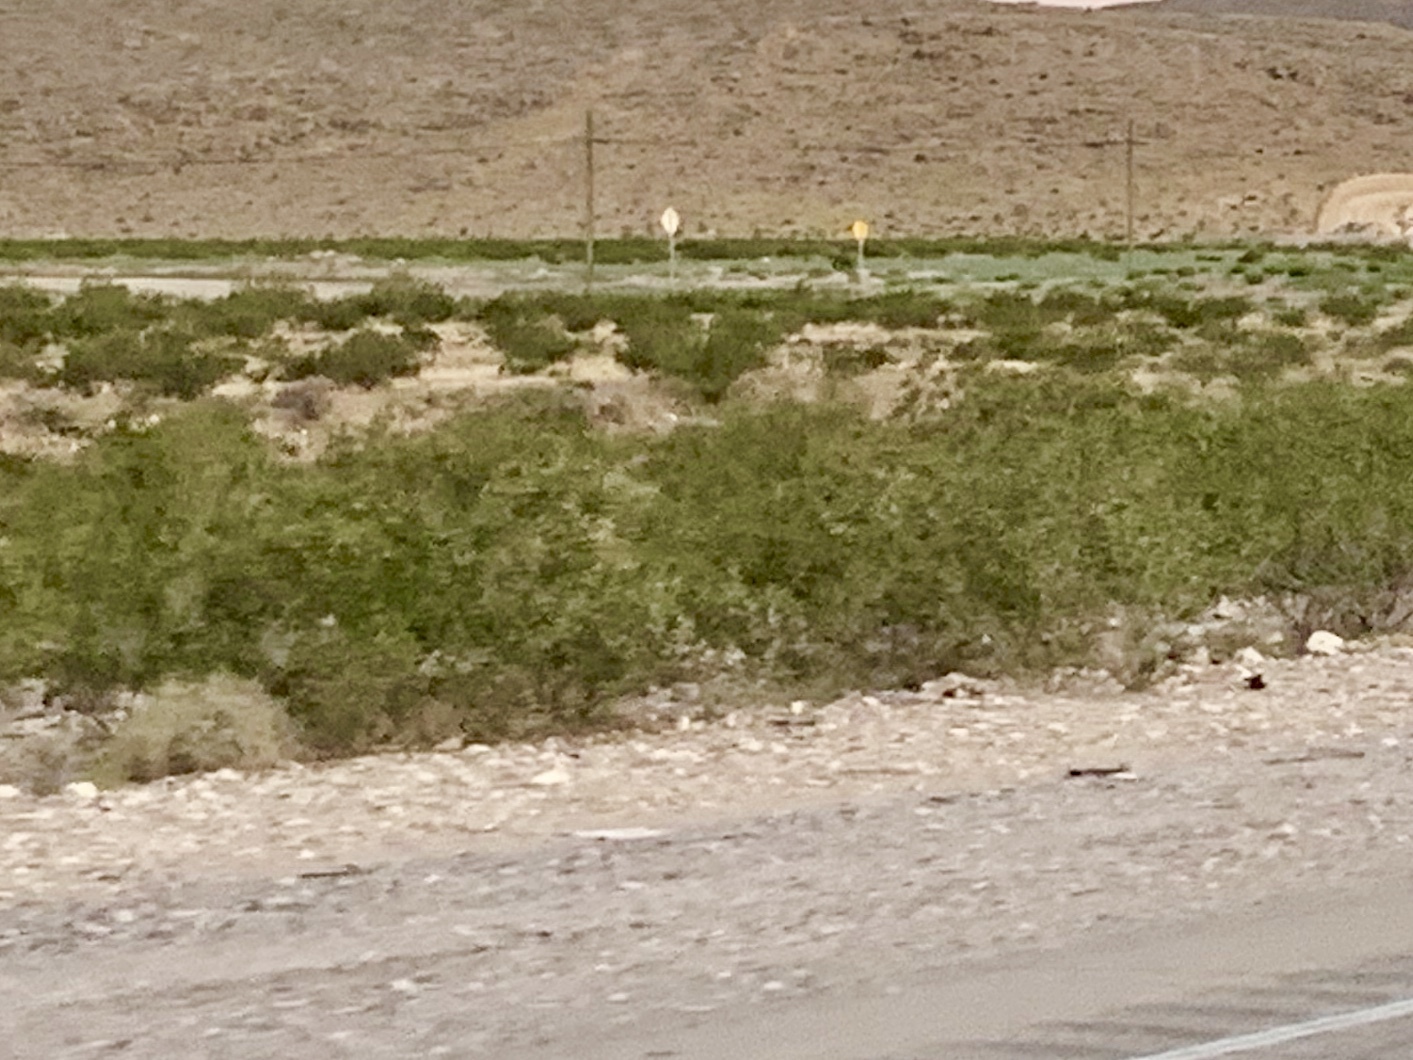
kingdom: Plantae
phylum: Tracheophyta
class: Magnoliopsida
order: Zygophyllales
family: Zygophyllaceae
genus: Larrea
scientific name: Larrea tridentata
